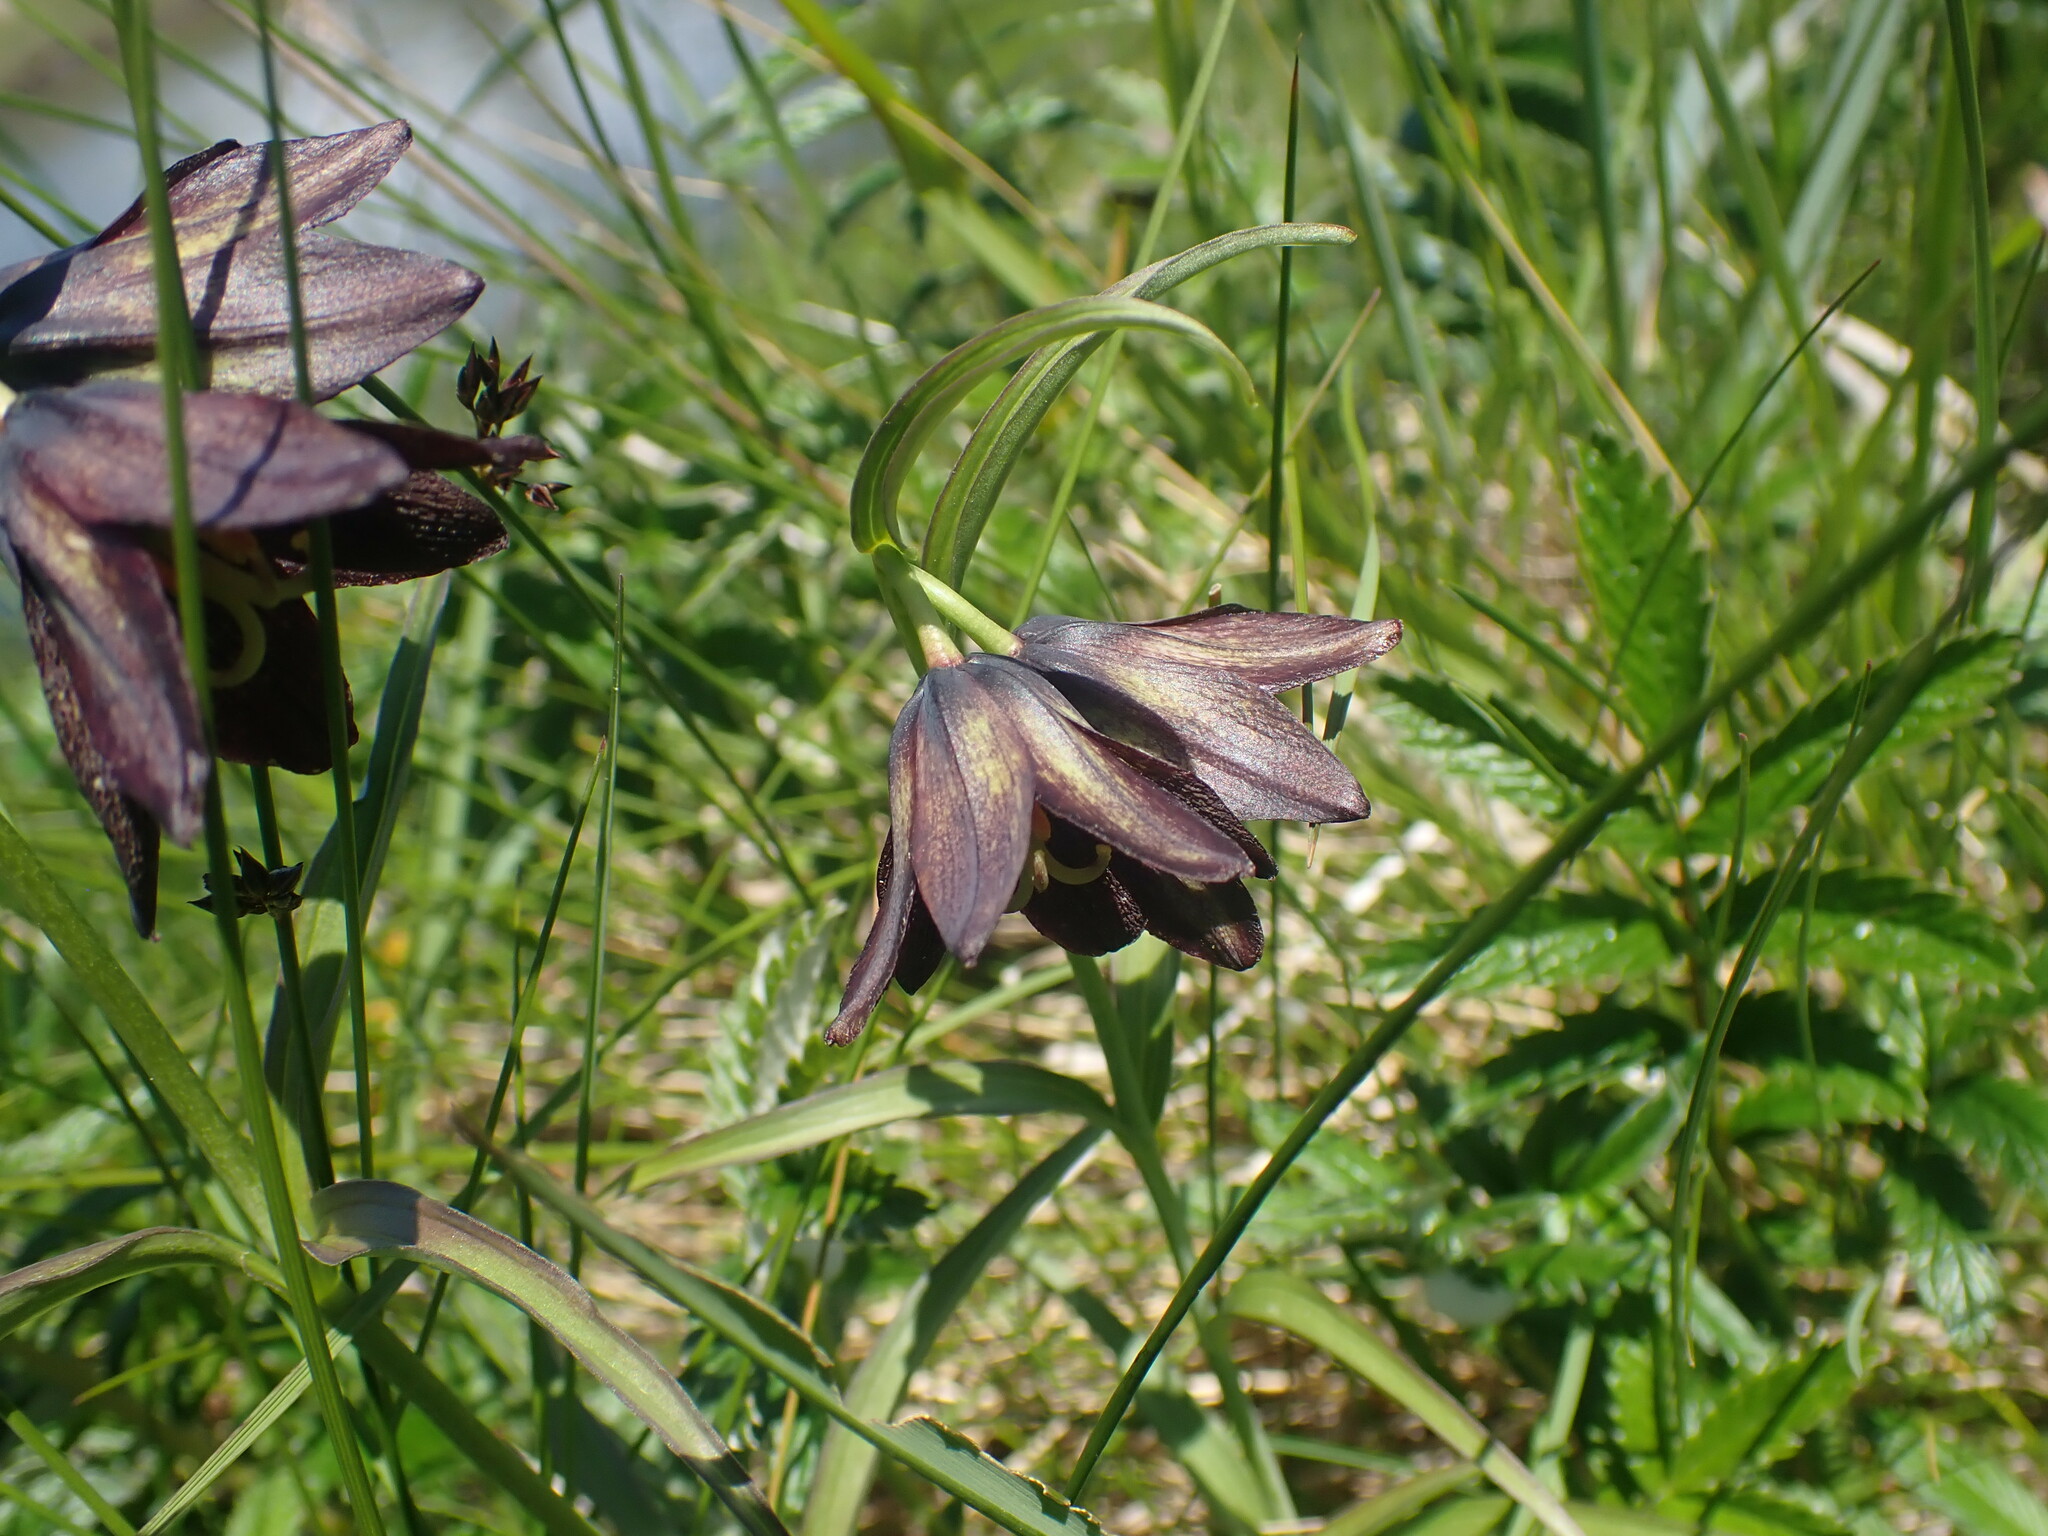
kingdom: Plantae
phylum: Tracheophyta
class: Liliopsida
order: Liliales
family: Liliaceae
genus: Fritillaria
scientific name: Fritillaria camschatcensis
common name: Kamchatka fritillary
